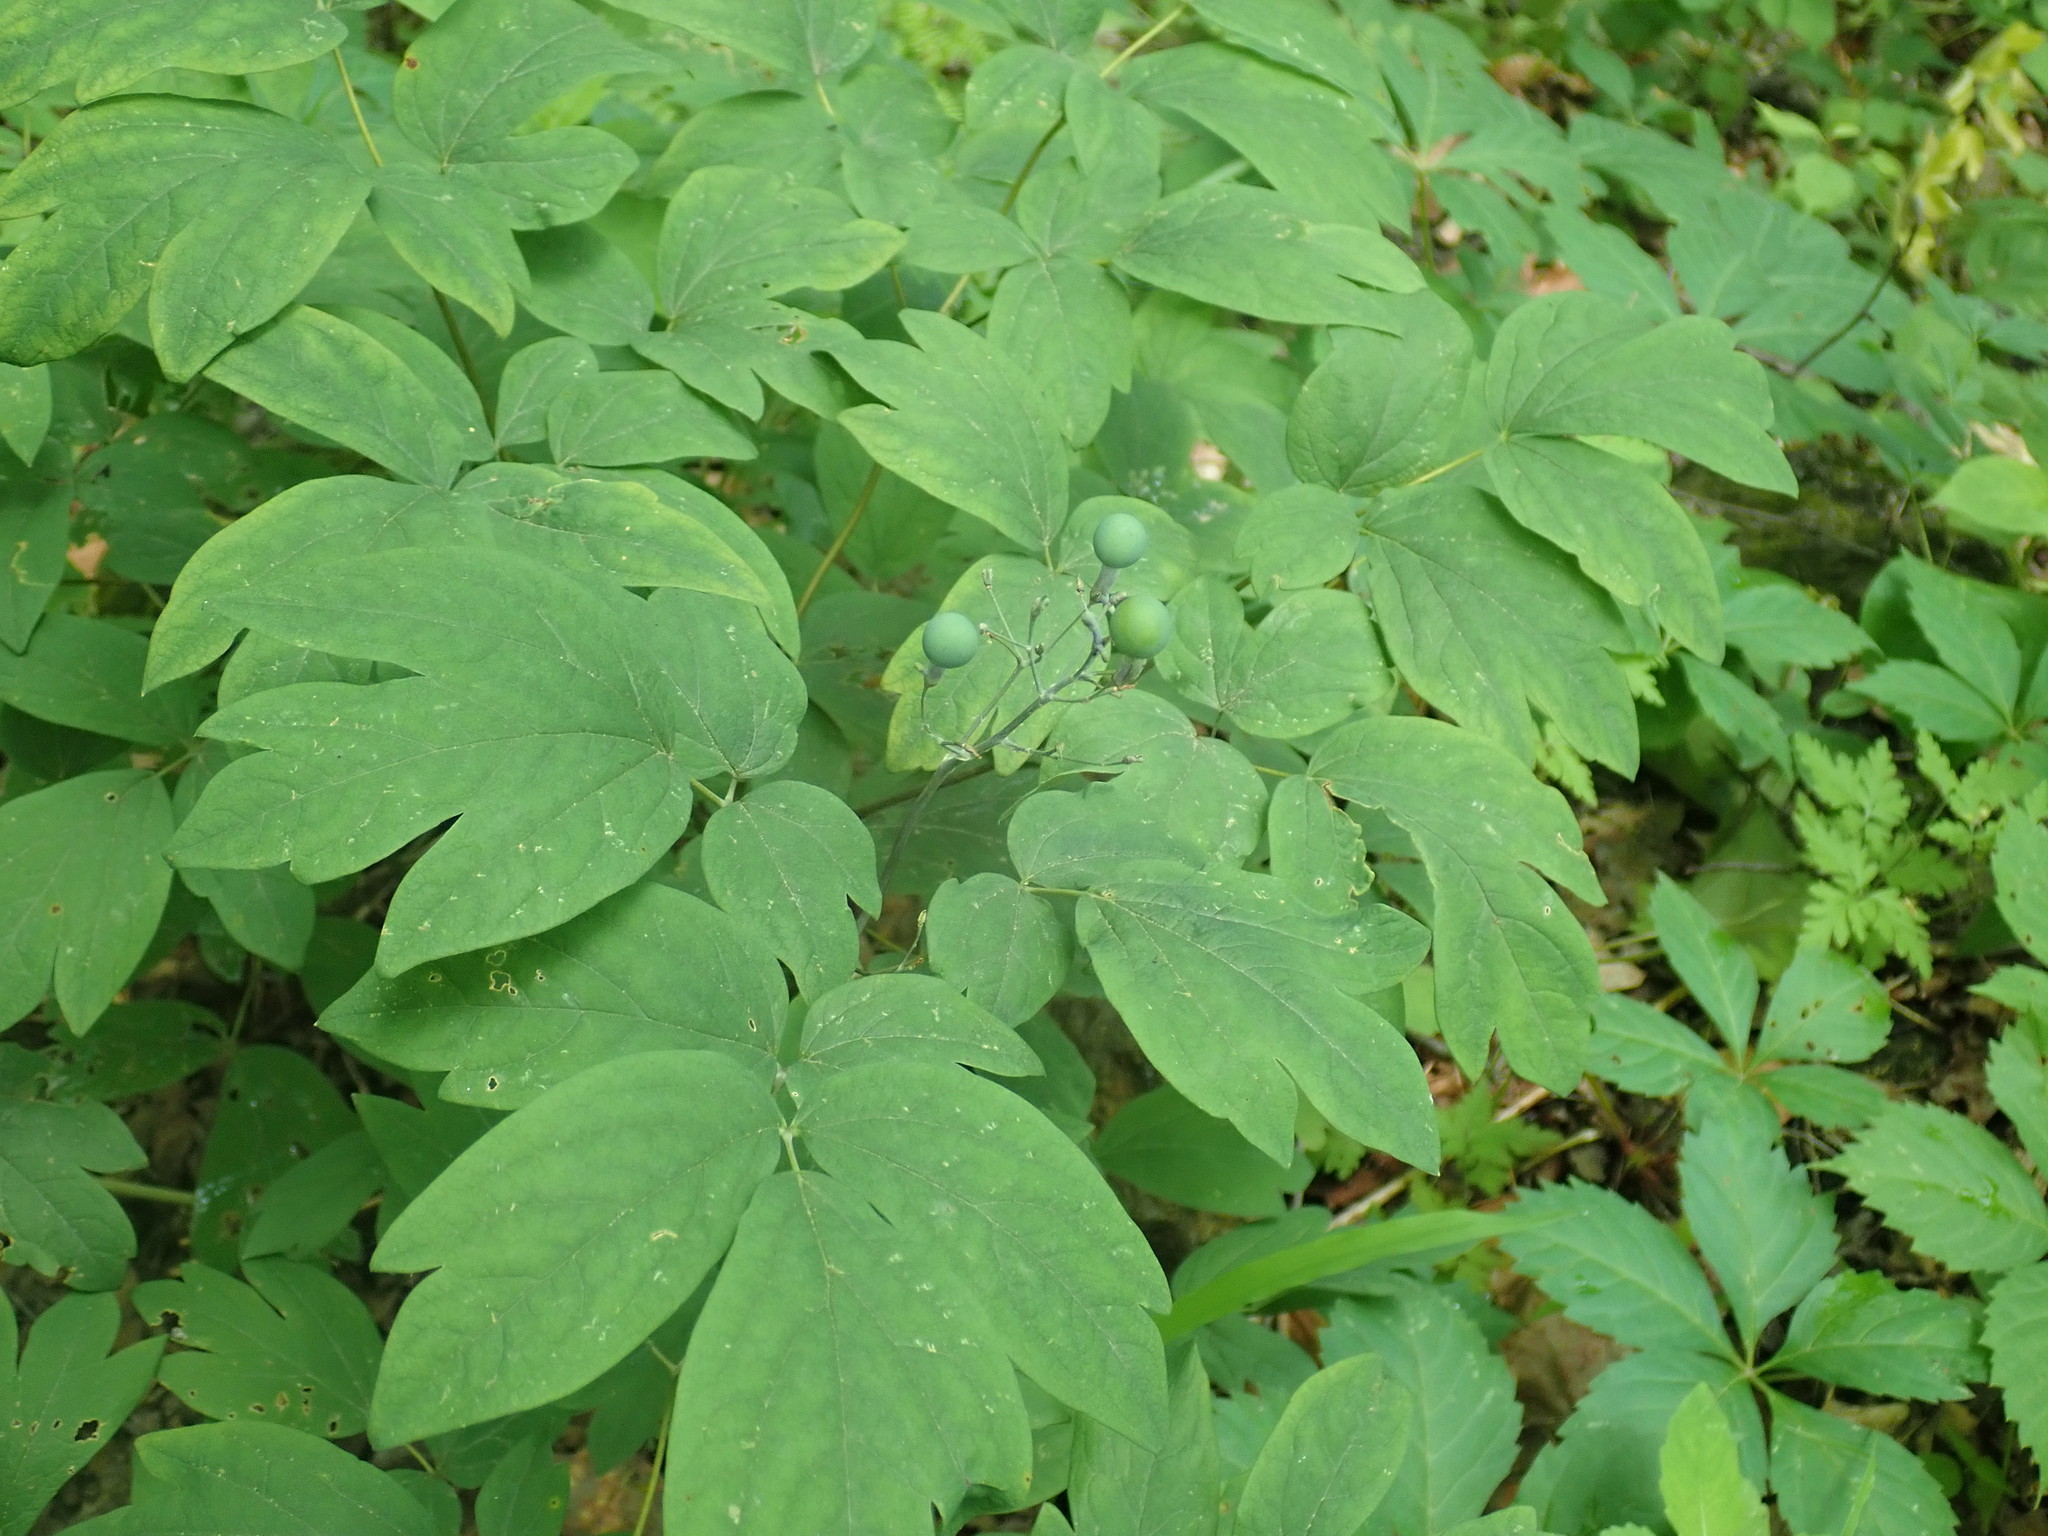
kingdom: Plantae
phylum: Tracheophyta
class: Magnoliopsida
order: Ranunculales
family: Berberidaceae
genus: Caulophyllum
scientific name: Caulophyllum
